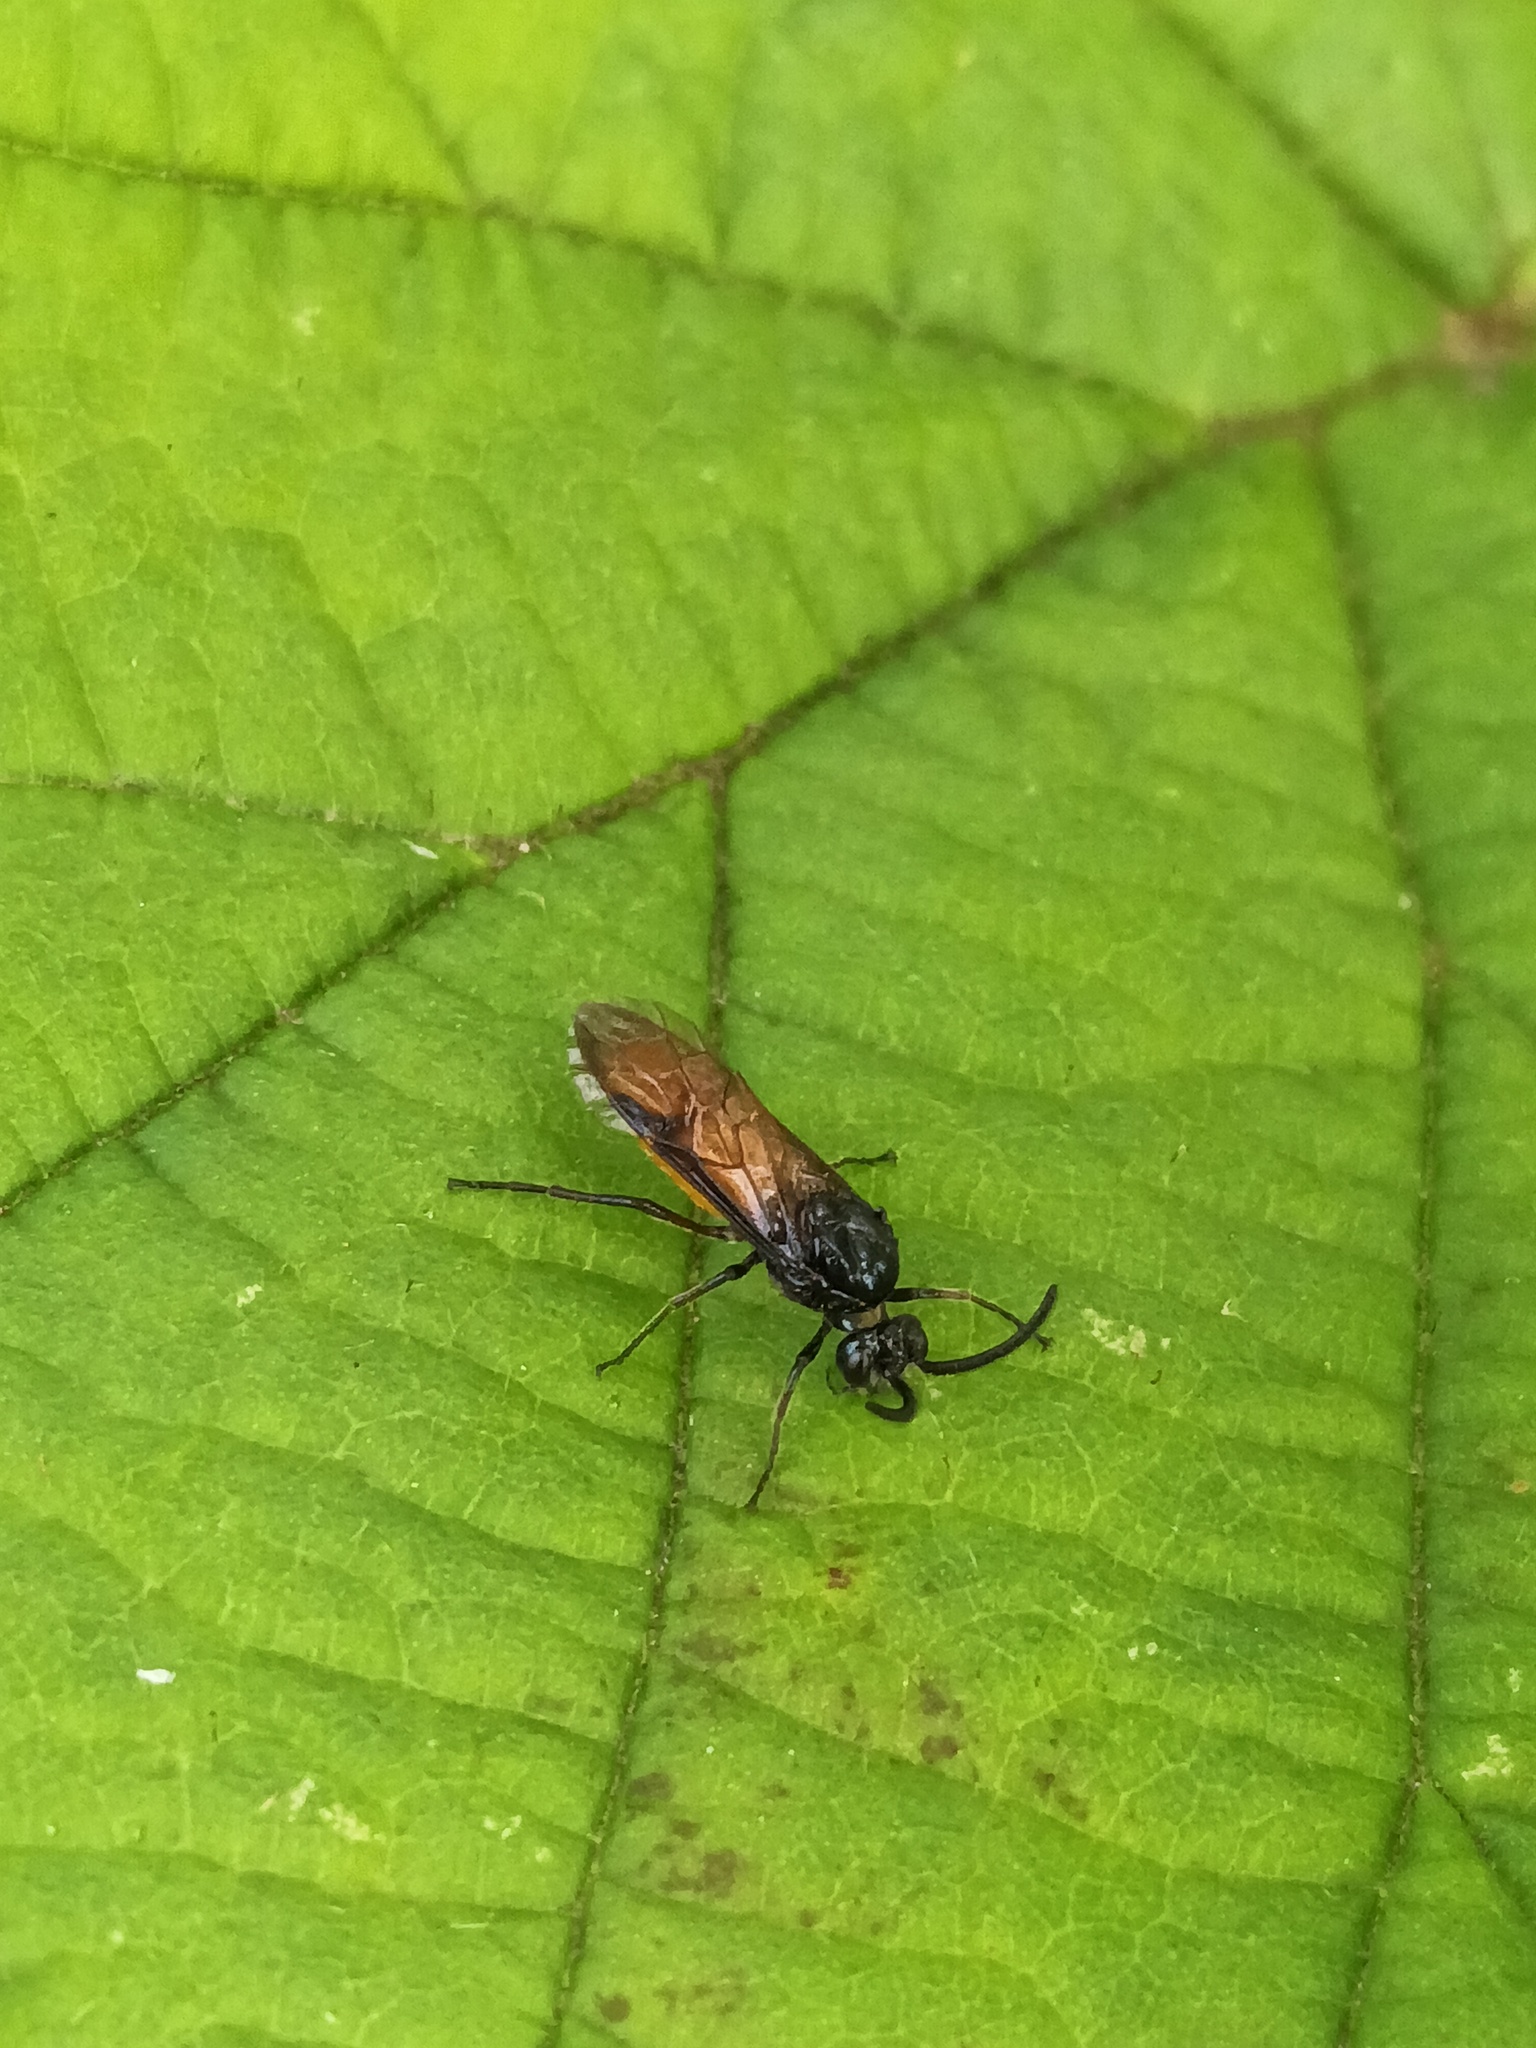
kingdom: Animalia
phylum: Arthropoda
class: Insecta
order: Hymenoptera
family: Argidae
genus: Arge
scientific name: Arge pagana
